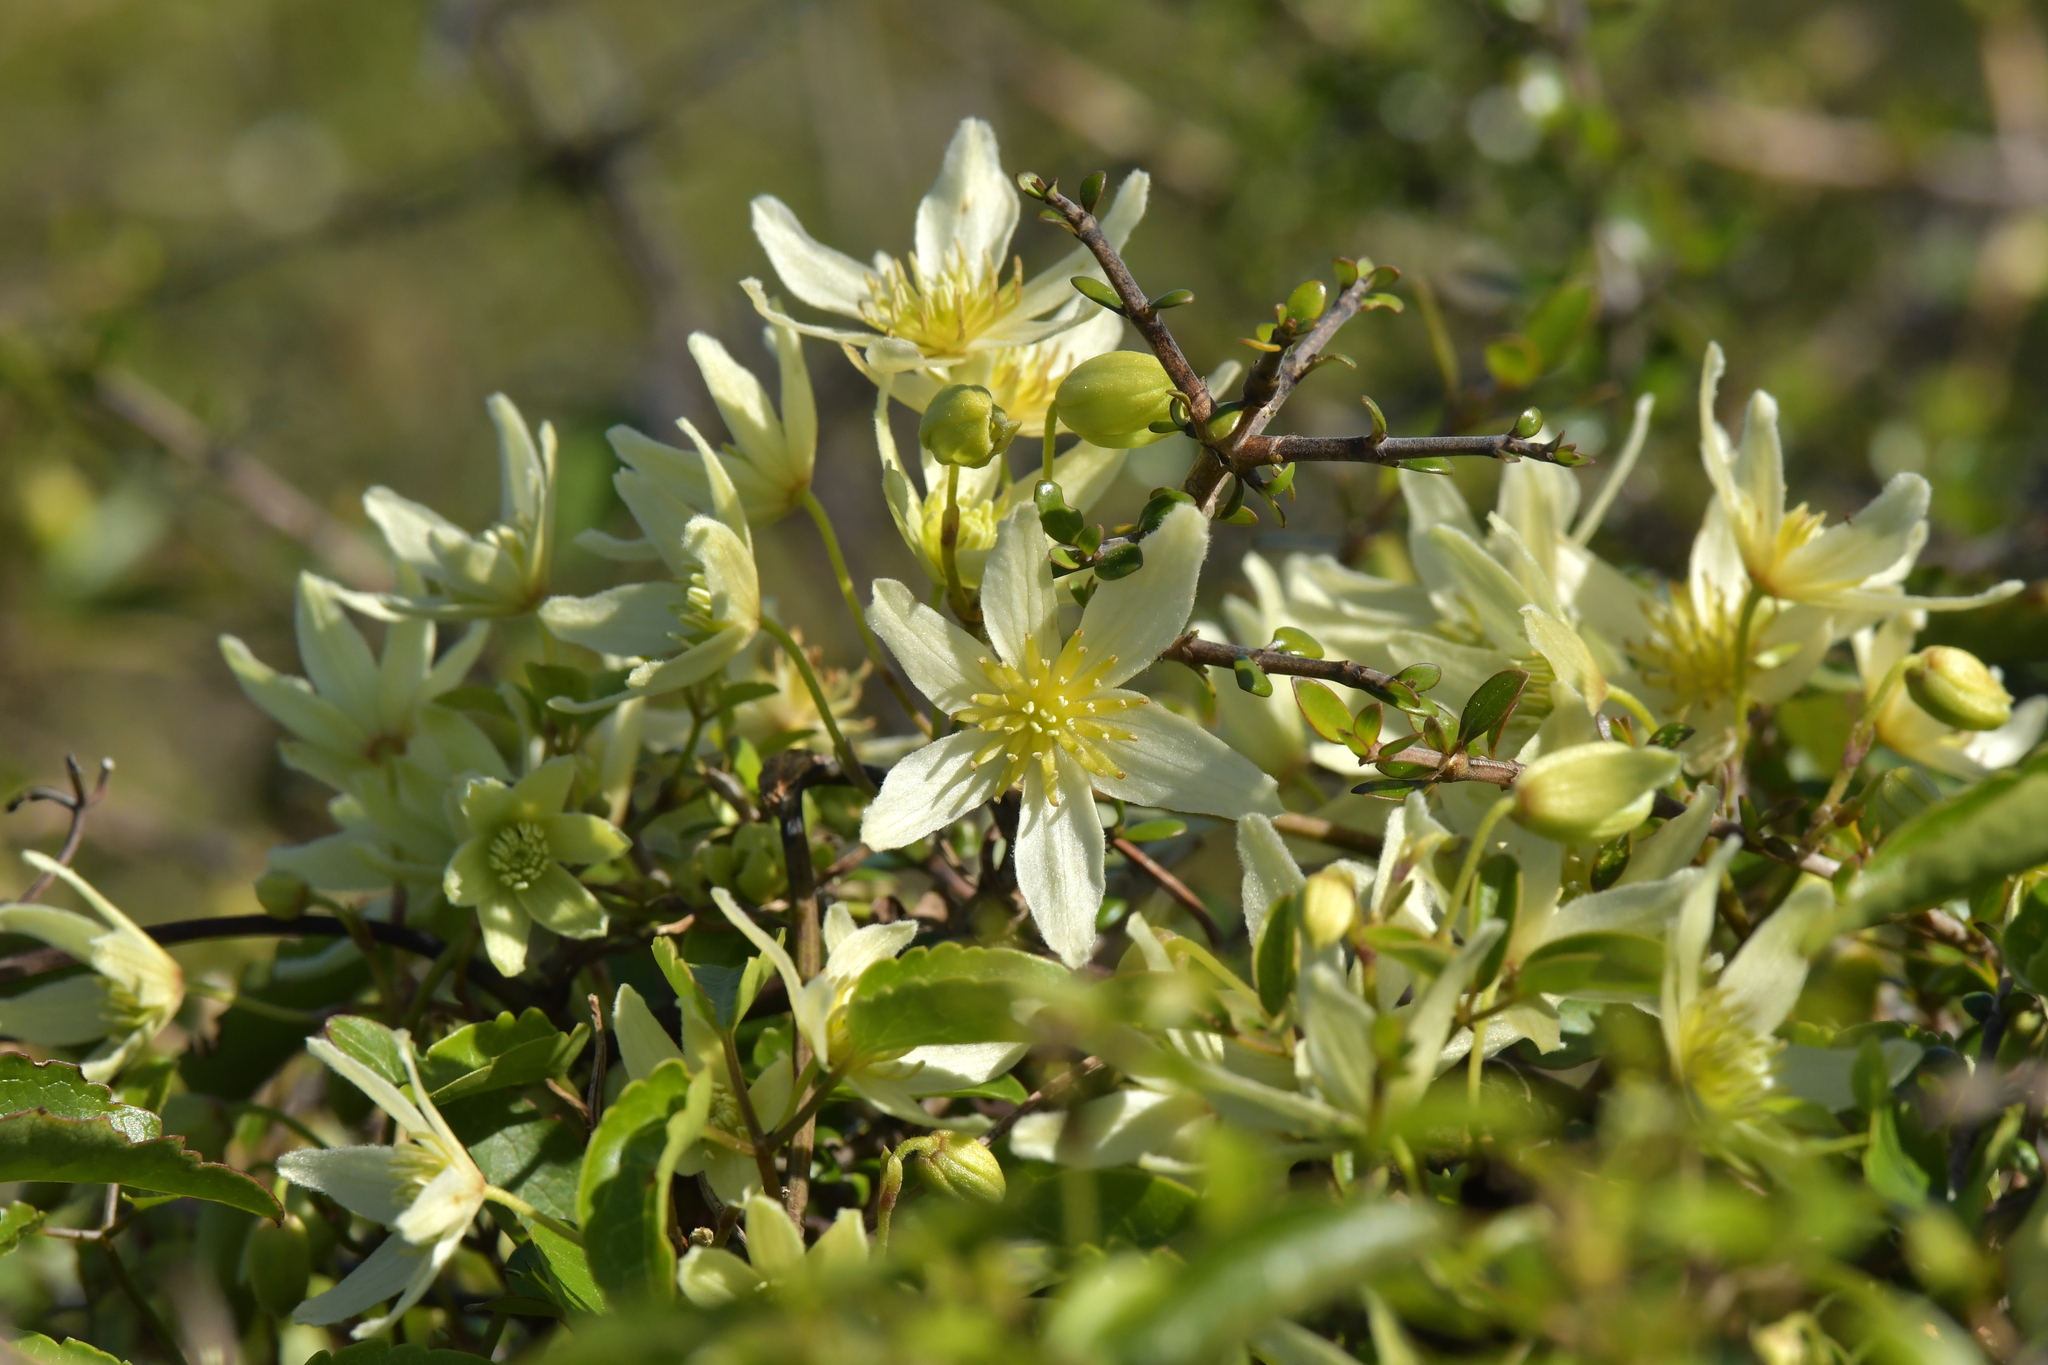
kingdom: Plantae
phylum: Tracheophyta
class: Magnoliopsida
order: Ranunculales
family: Ranunculaceae
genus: Clematis
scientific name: Clematis forsteri
